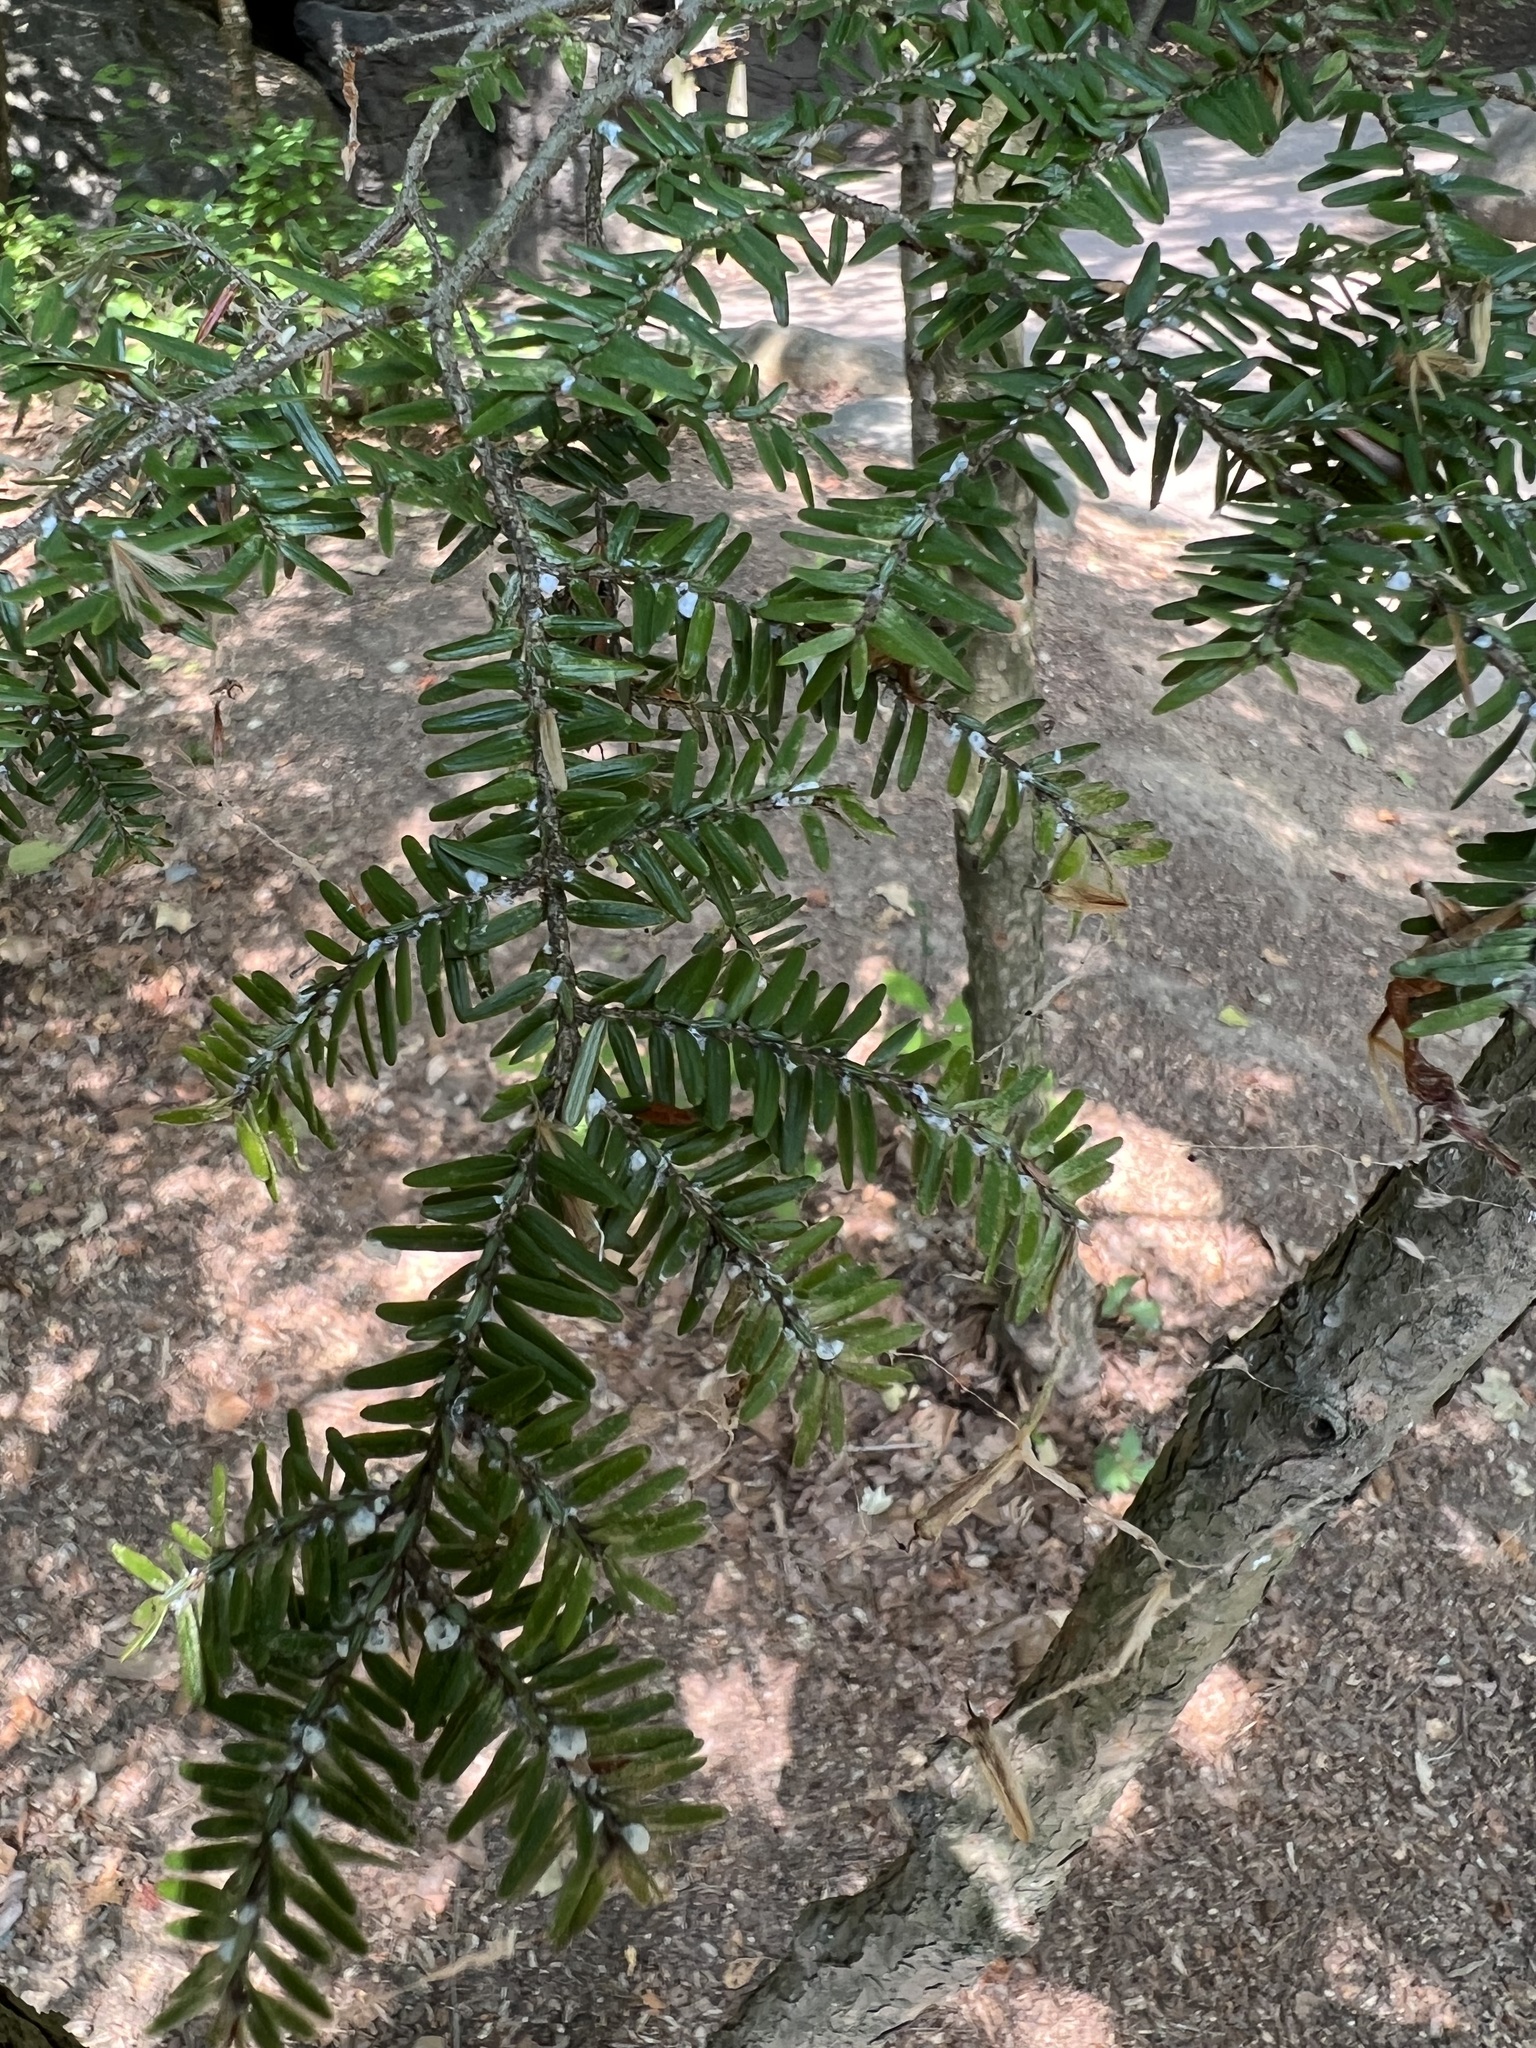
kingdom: Plantae
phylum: Tracheophyta
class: Pinopsida
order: Pinales
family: Pinaceae
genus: Tsuga
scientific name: Tsuga canadensis
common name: Eastern hemlock
